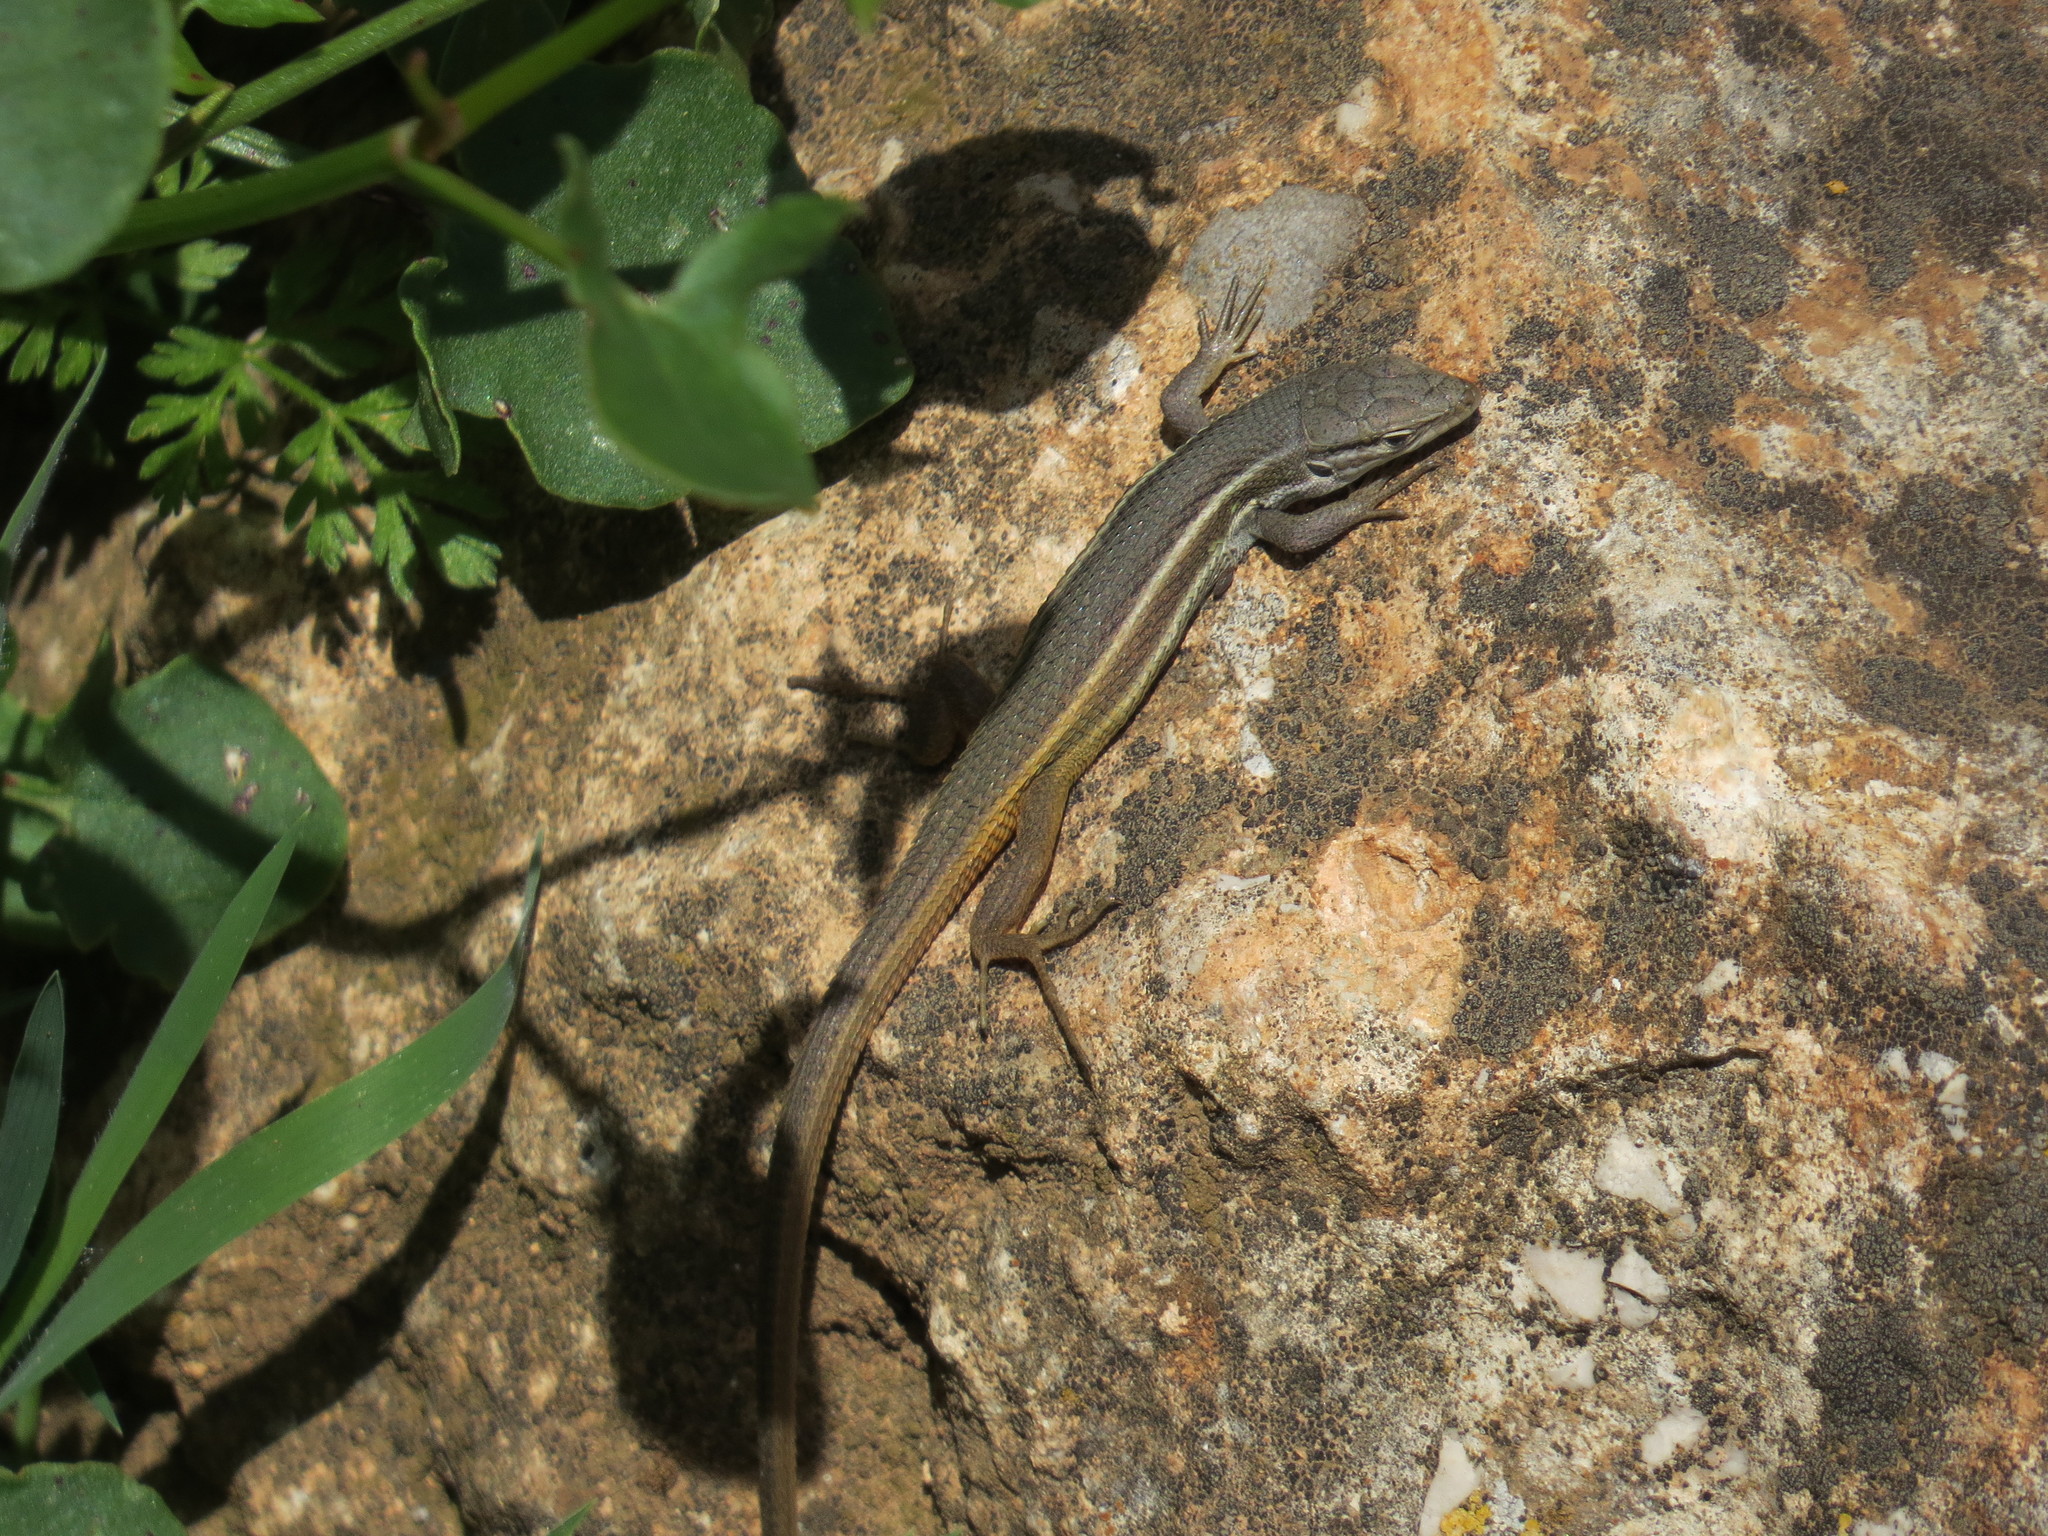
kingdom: Animalia
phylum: Chordata
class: Squamata
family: Lacertidae
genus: Psammodromus
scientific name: Psammodromus algirus
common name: Algerian psammodromus
